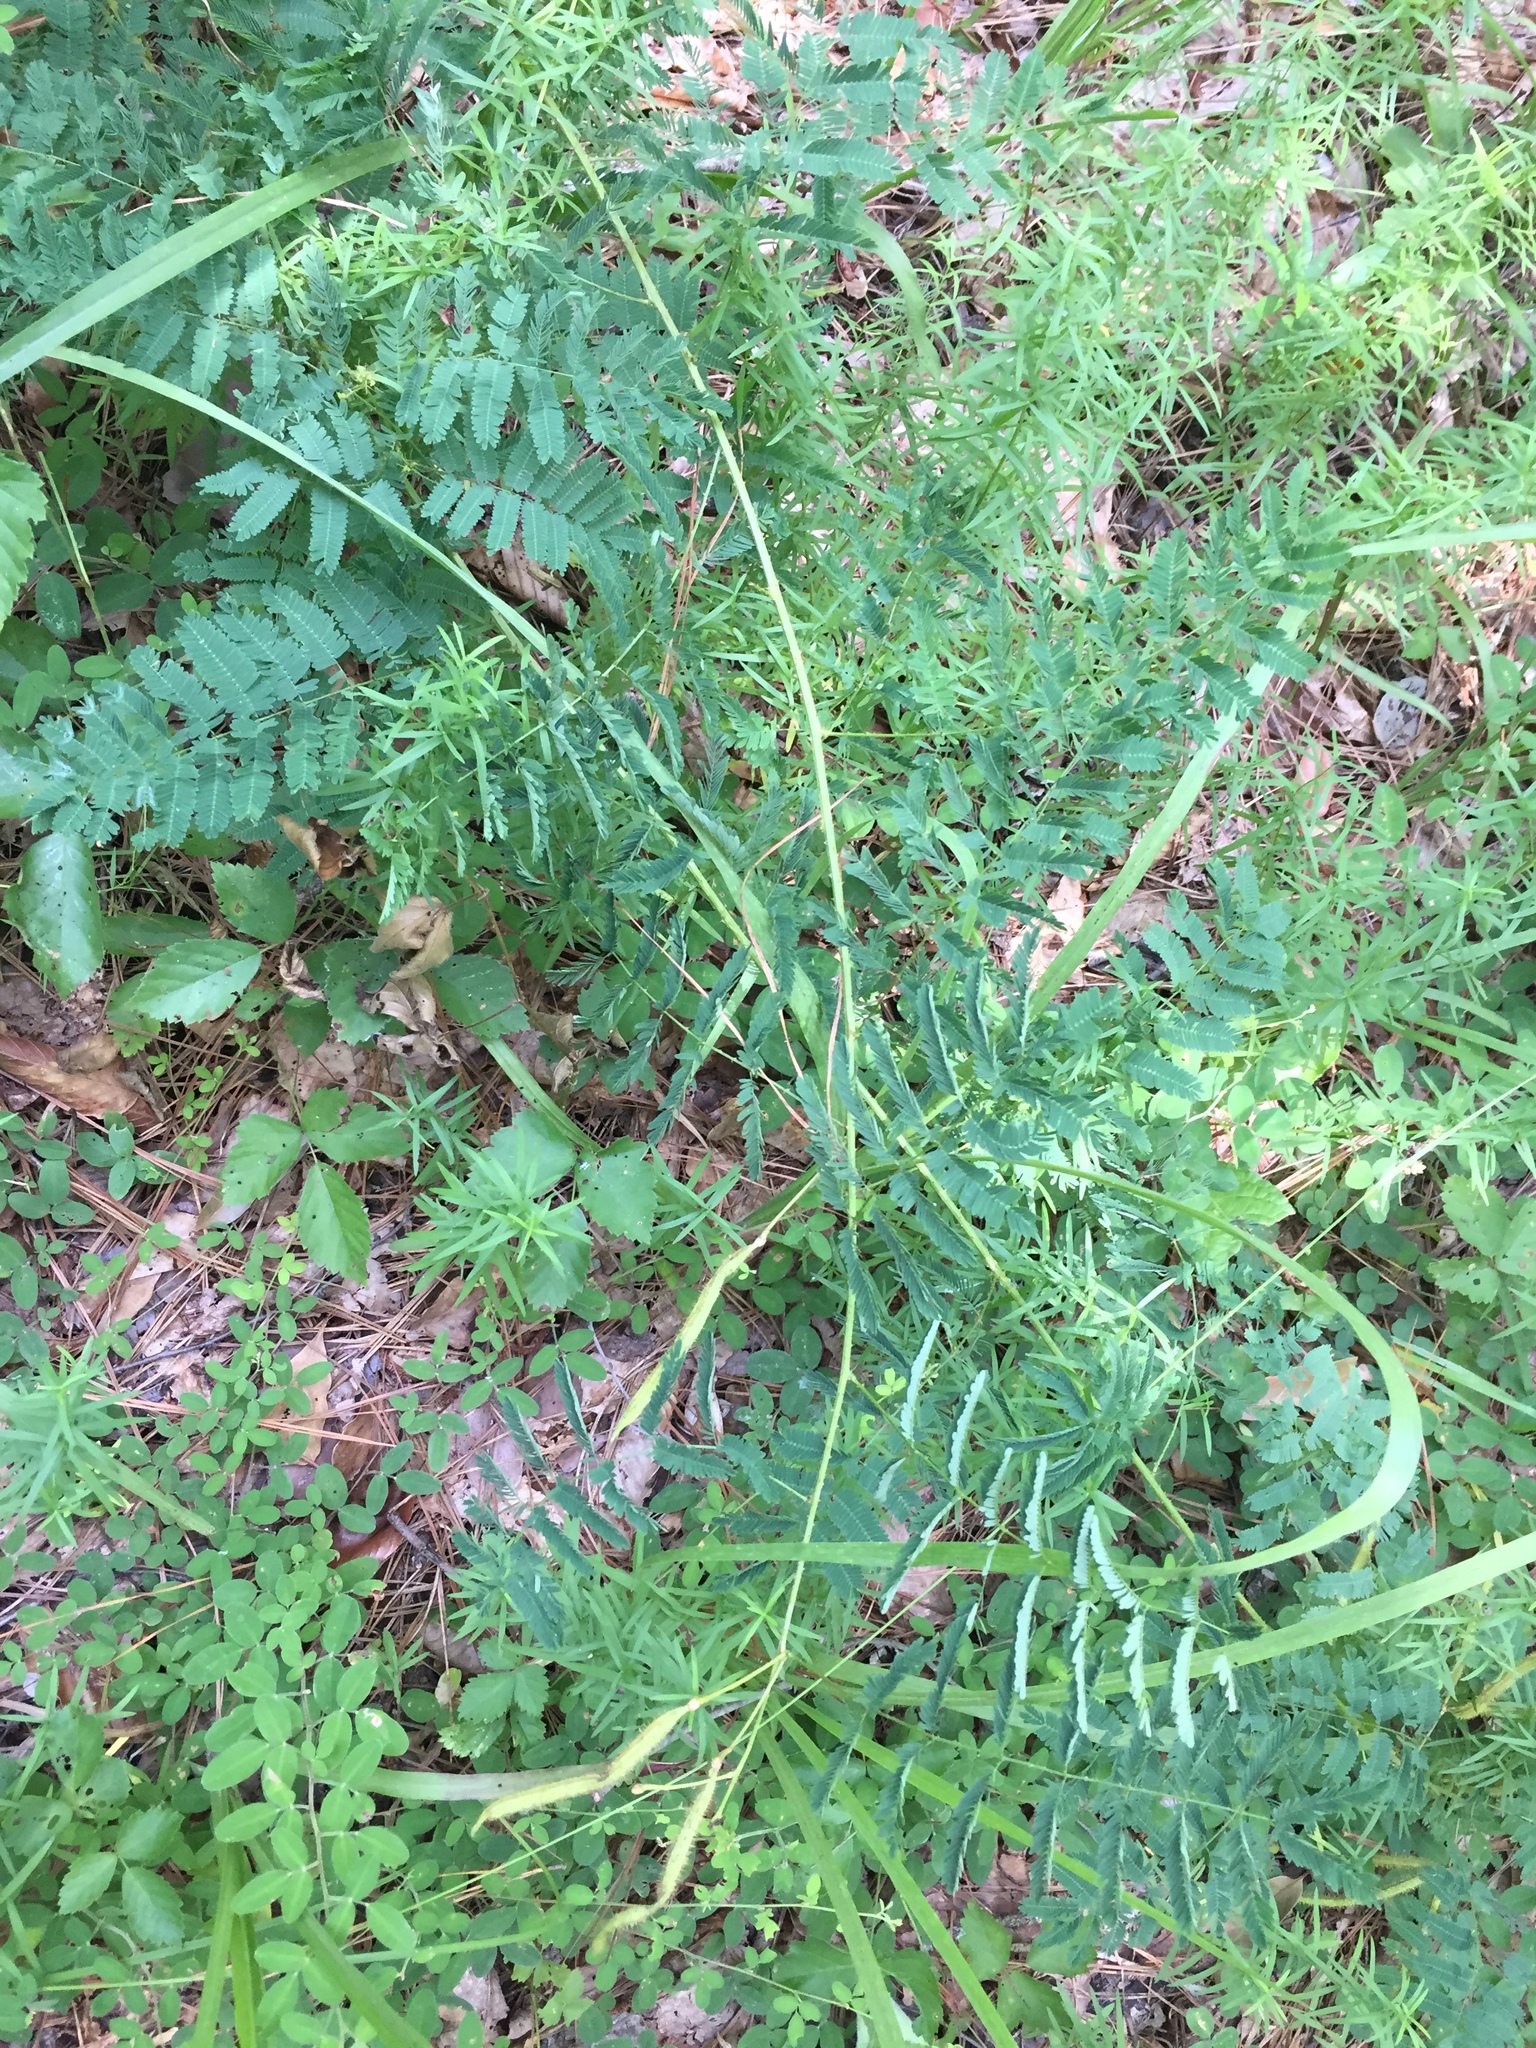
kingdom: Plantae
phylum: Tracheophyta
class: Magnoliopsida
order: Fabales
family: Fabaceae
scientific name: Fabaceae
